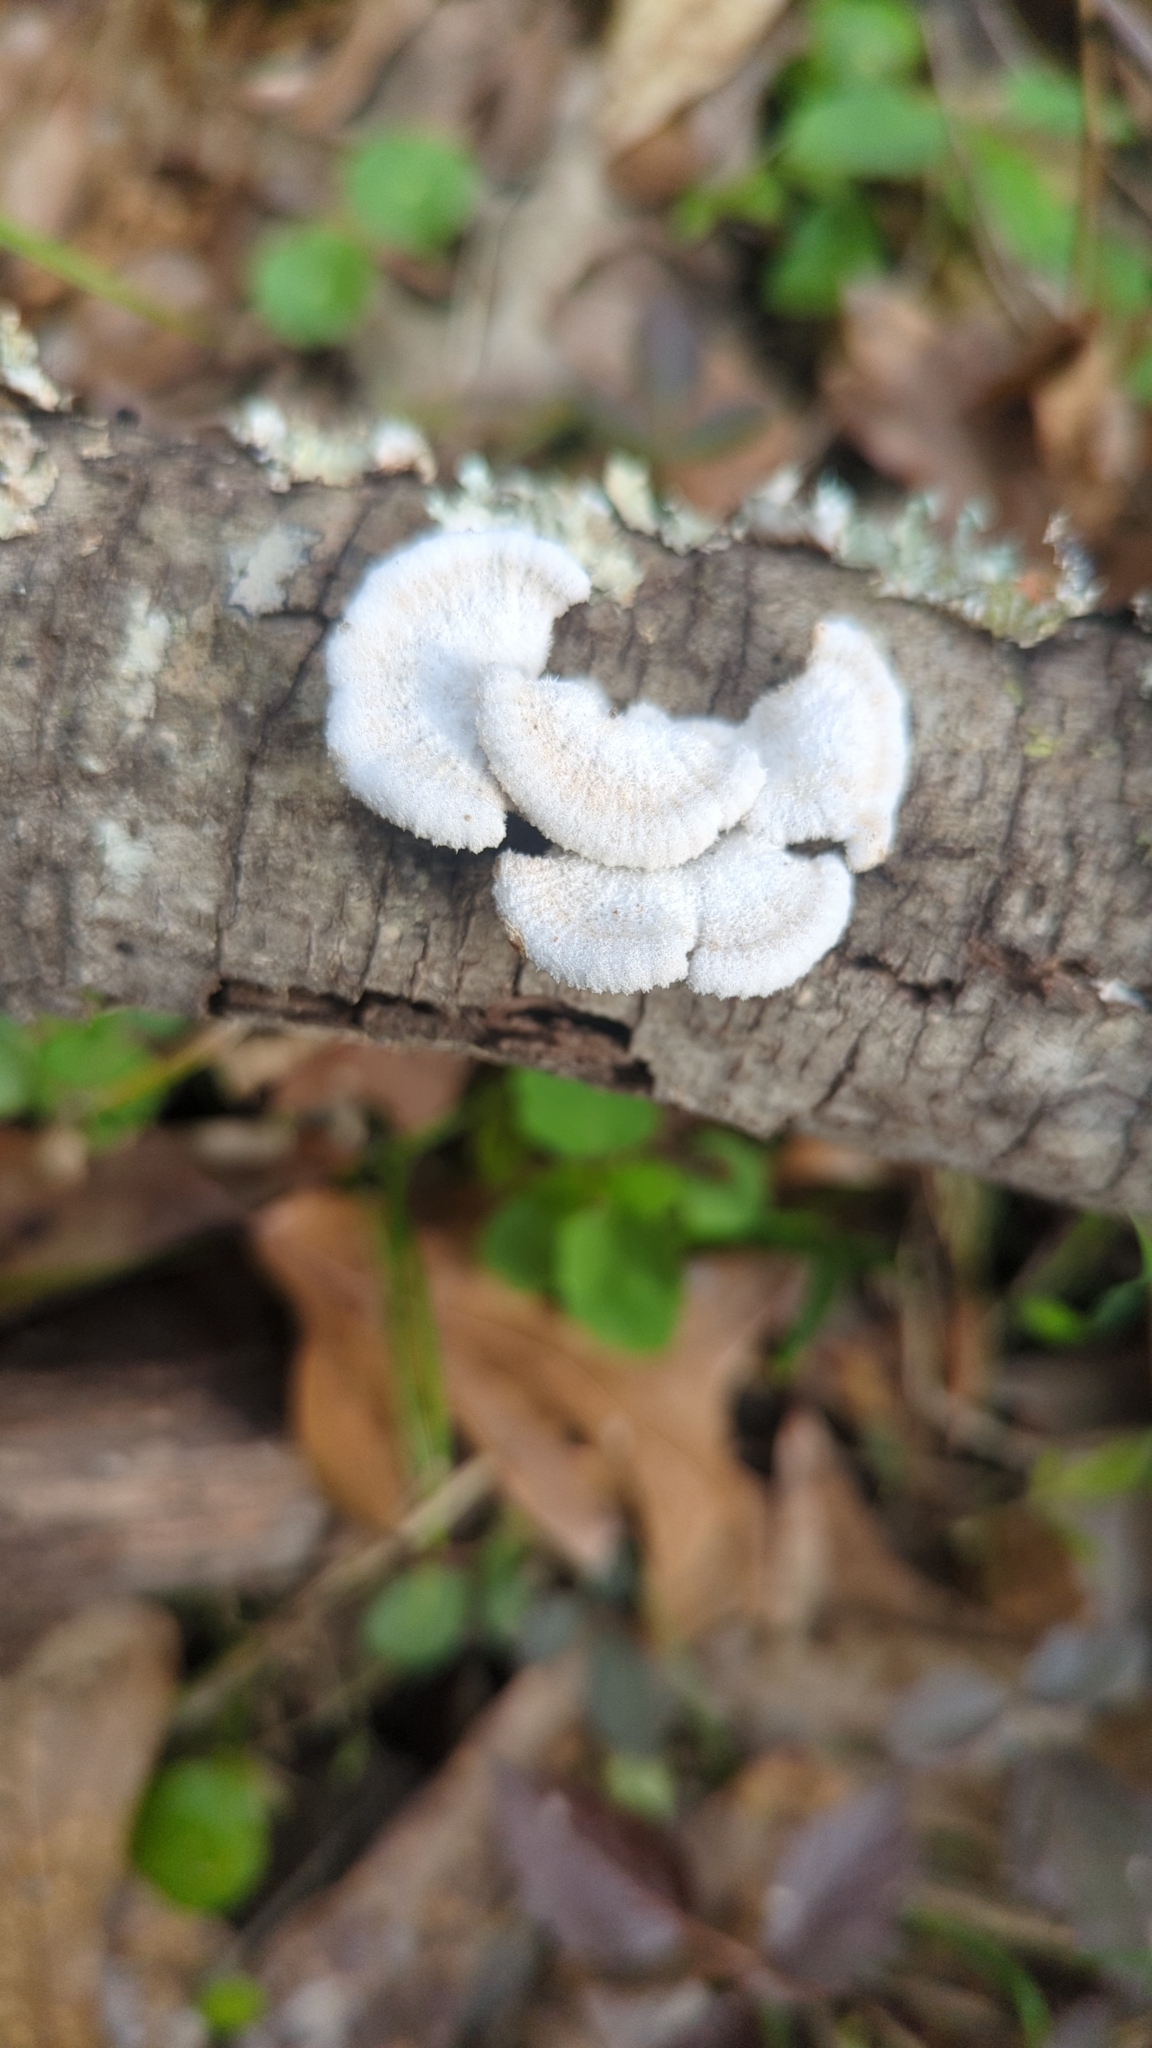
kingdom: Fungi
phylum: Basidiomycota
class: Agaricomycetes
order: Agaricales
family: Schizophyllaceae
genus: Schizophyllum
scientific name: Schizophyllum commune
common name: Common porecrust
